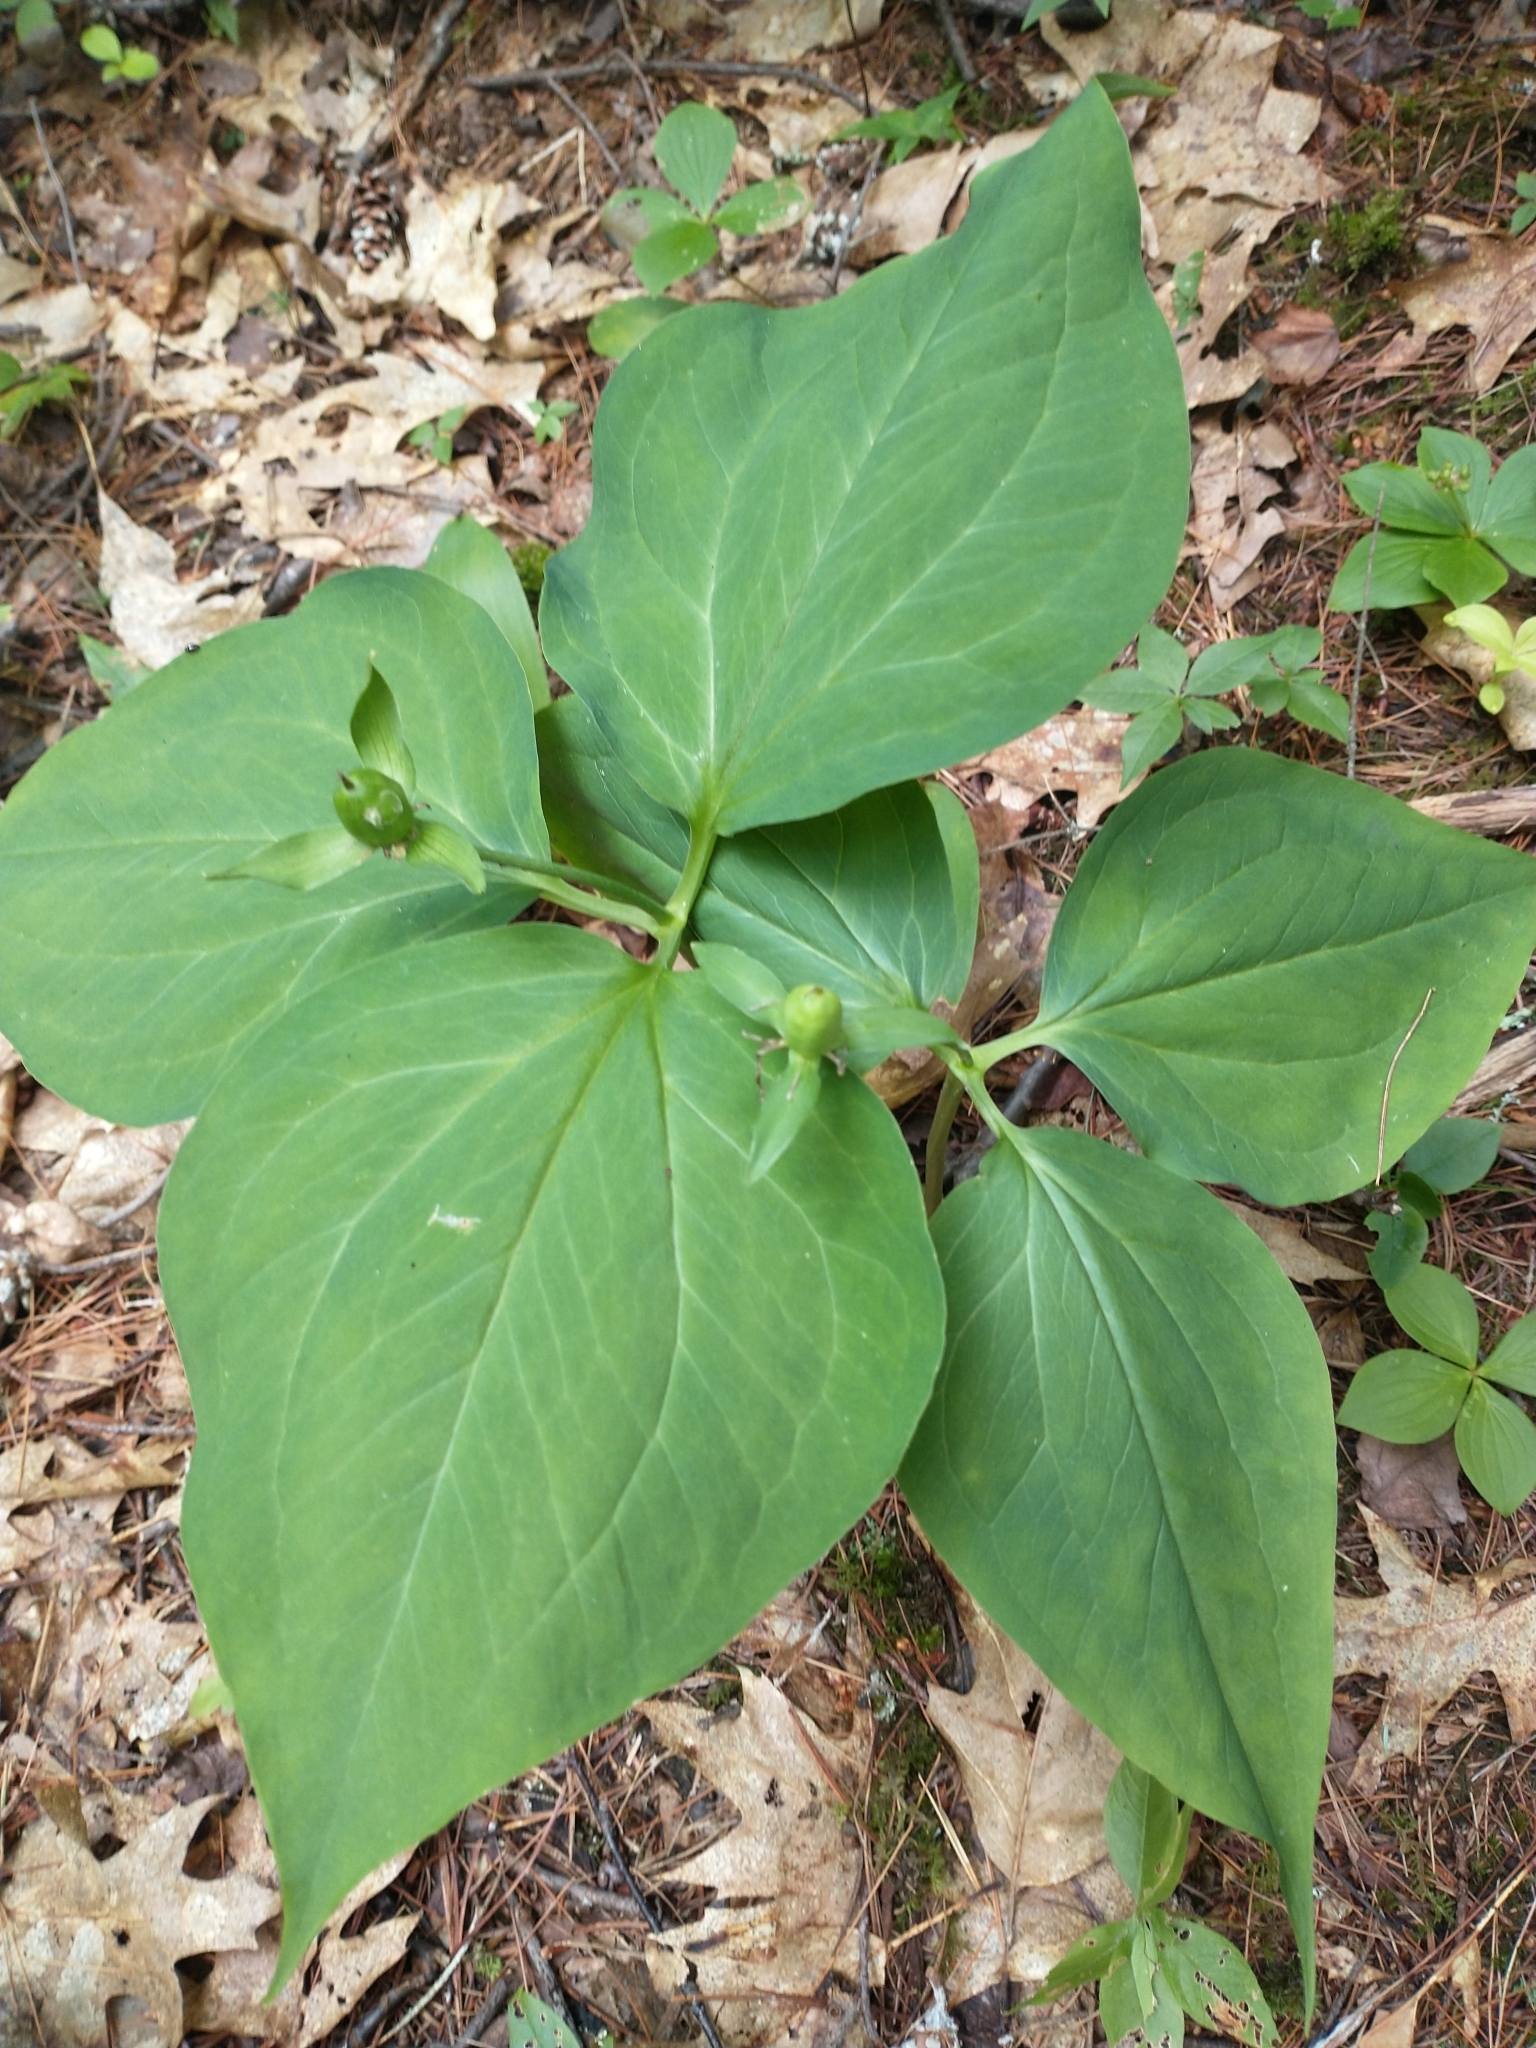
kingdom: Plantae
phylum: Tracheophyta
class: Liliopsida
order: Liliales
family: Melanthiaceae
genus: Trillium
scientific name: Trillium undulatum
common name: Paint trillium
